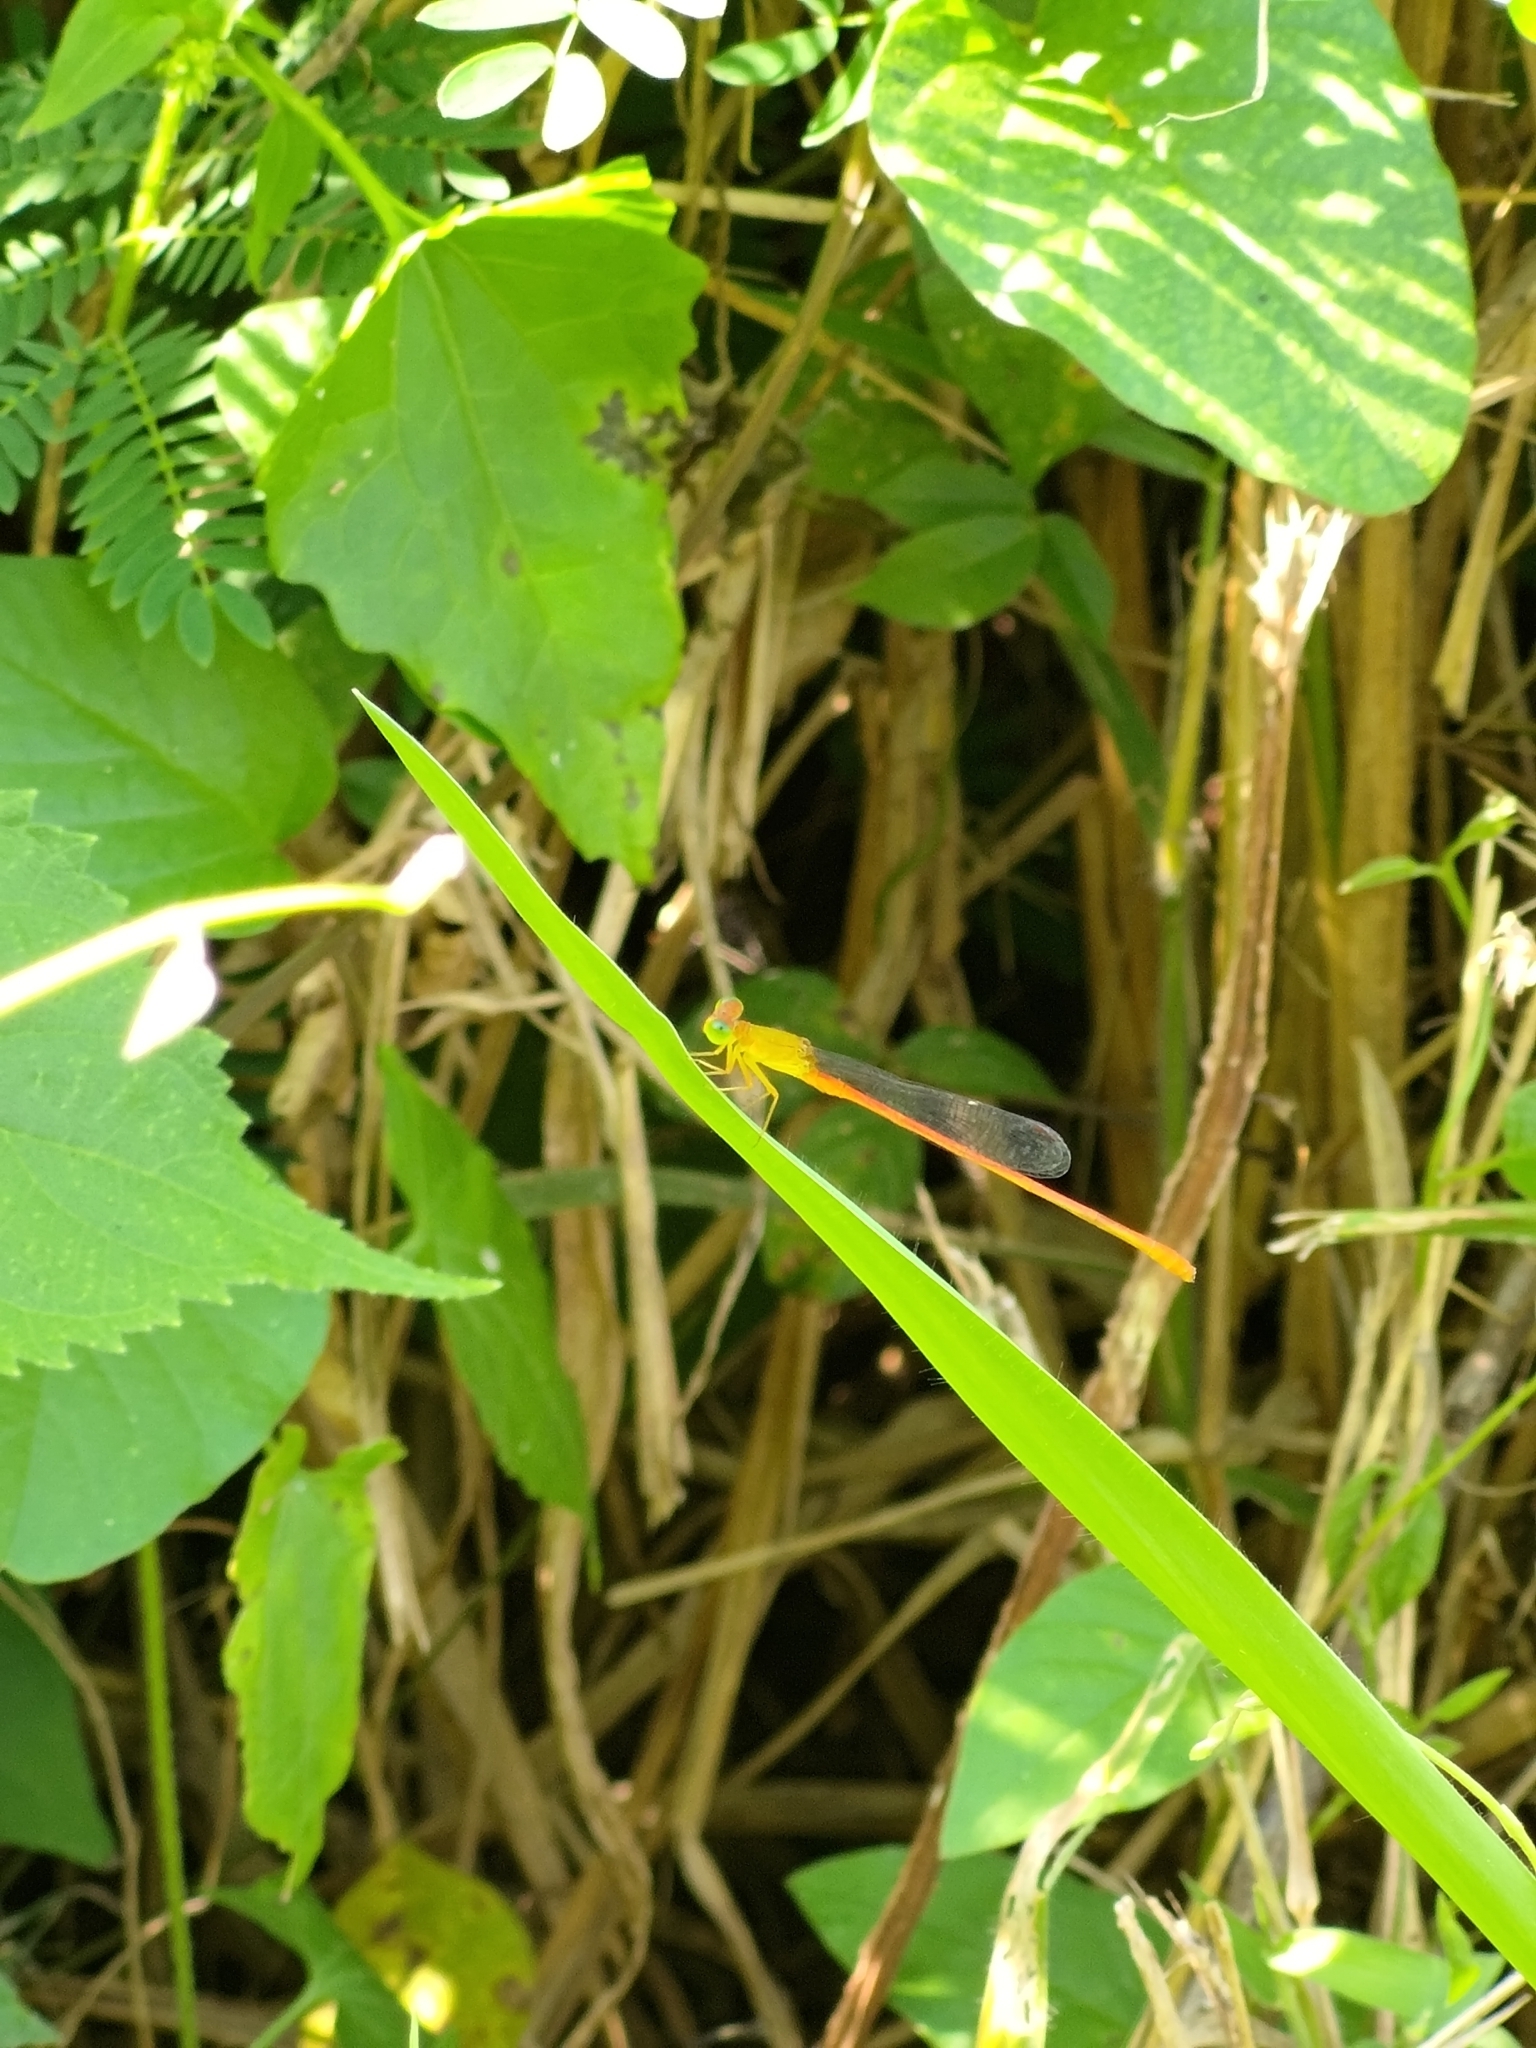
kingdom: Animalia
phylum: Arthropoda
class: Insecta
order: Odonata
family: Coenagrionidae
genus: Ceriagrion
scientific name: Ceriagrion auranticum
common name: Orange-tailed sprite
